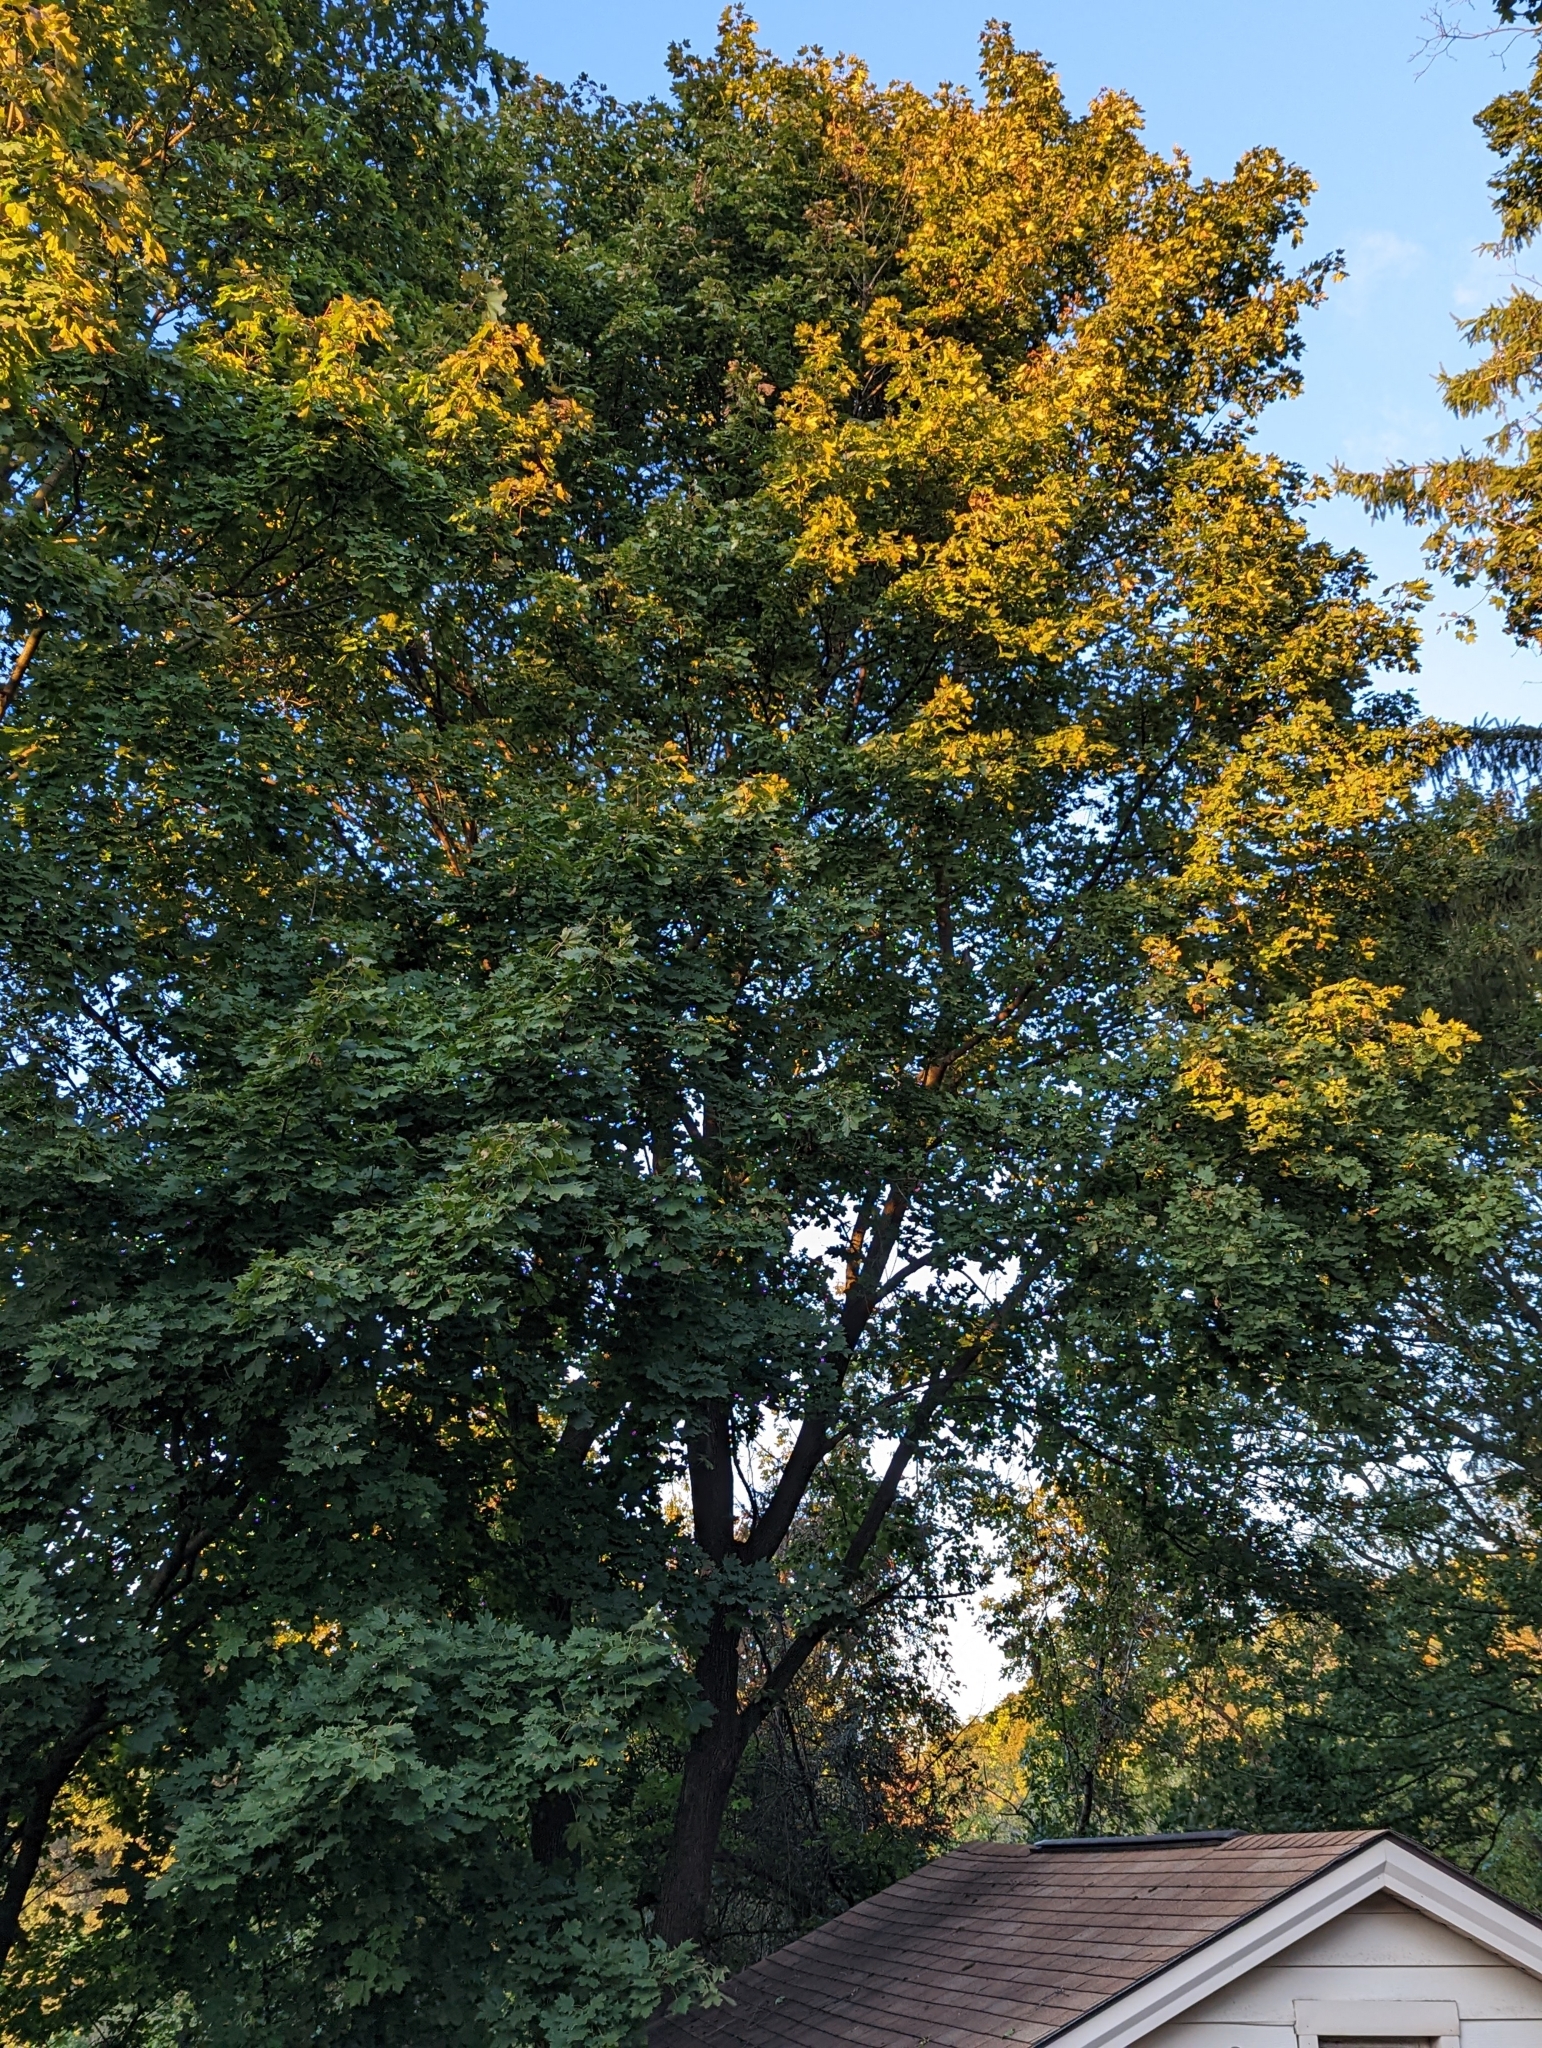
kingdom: Plantae
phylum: Tracheophyta
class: Magnoliopsida
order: Sapindales
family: Sapindaceae
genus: Acer
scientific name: Acer platanoides
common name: Norway maple
